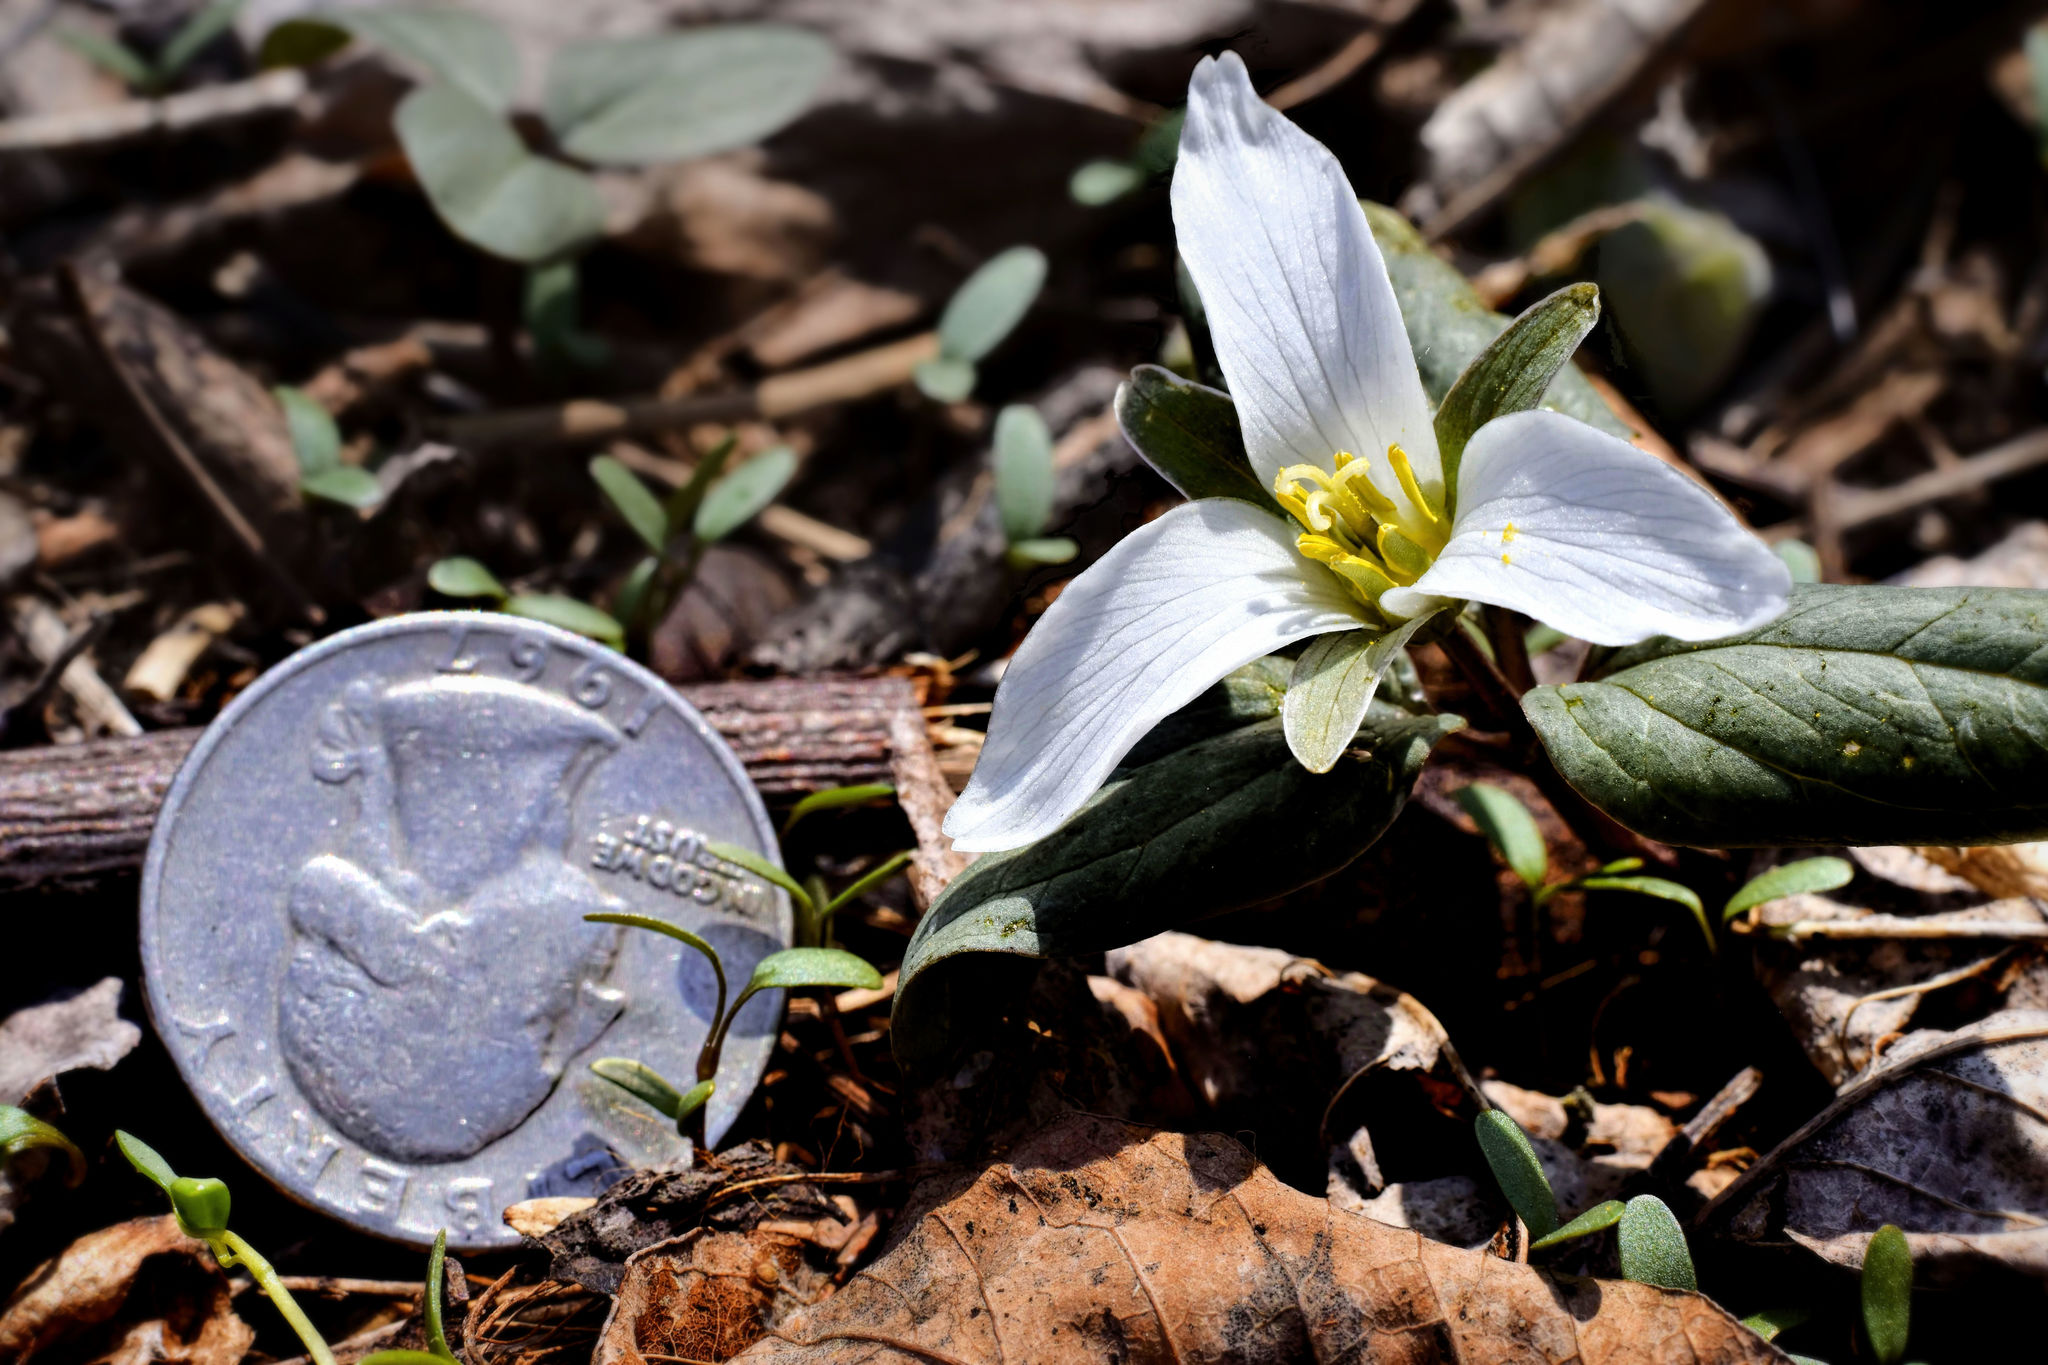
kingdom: Plantae
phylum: Tracheophyta
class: Liliopsida
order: Liliales
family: Melanthiaceae
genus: Trillium
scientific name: Trillium nivale
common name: Dwarf white trillium
